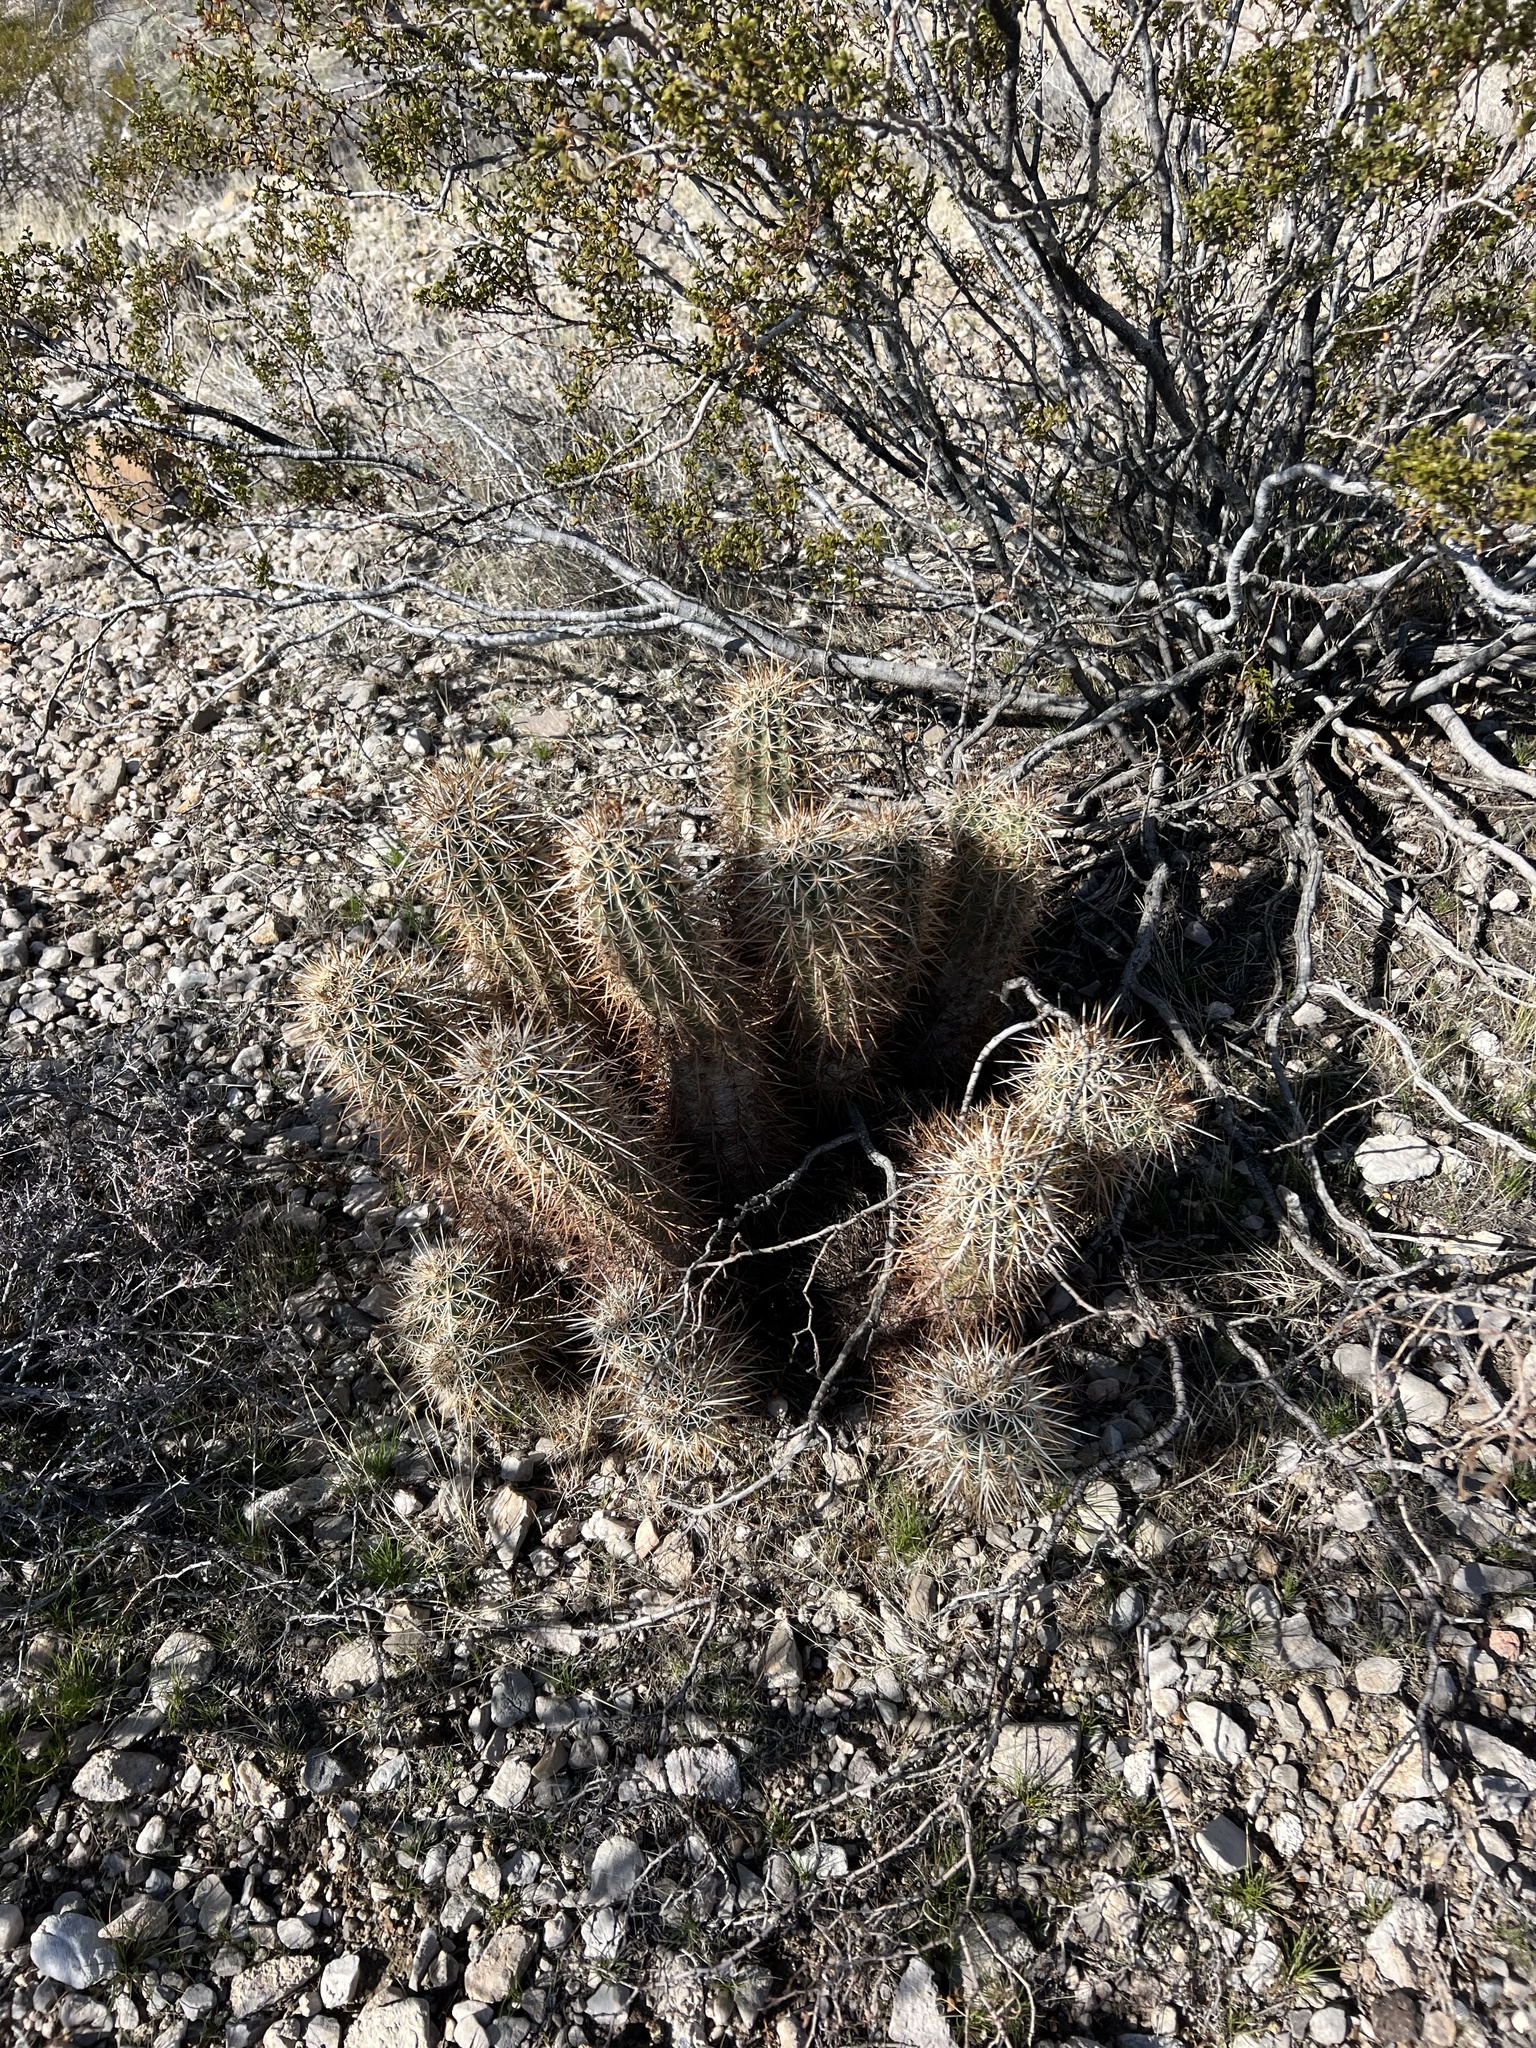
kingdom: Plantae
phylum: Tracheophyta
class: Magnoliopsida
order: Caryophyllales
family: Cactaceae
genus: Echinocereus
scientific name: Echinocereus engelmannii
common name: Engelmann's hedgehog cactus
